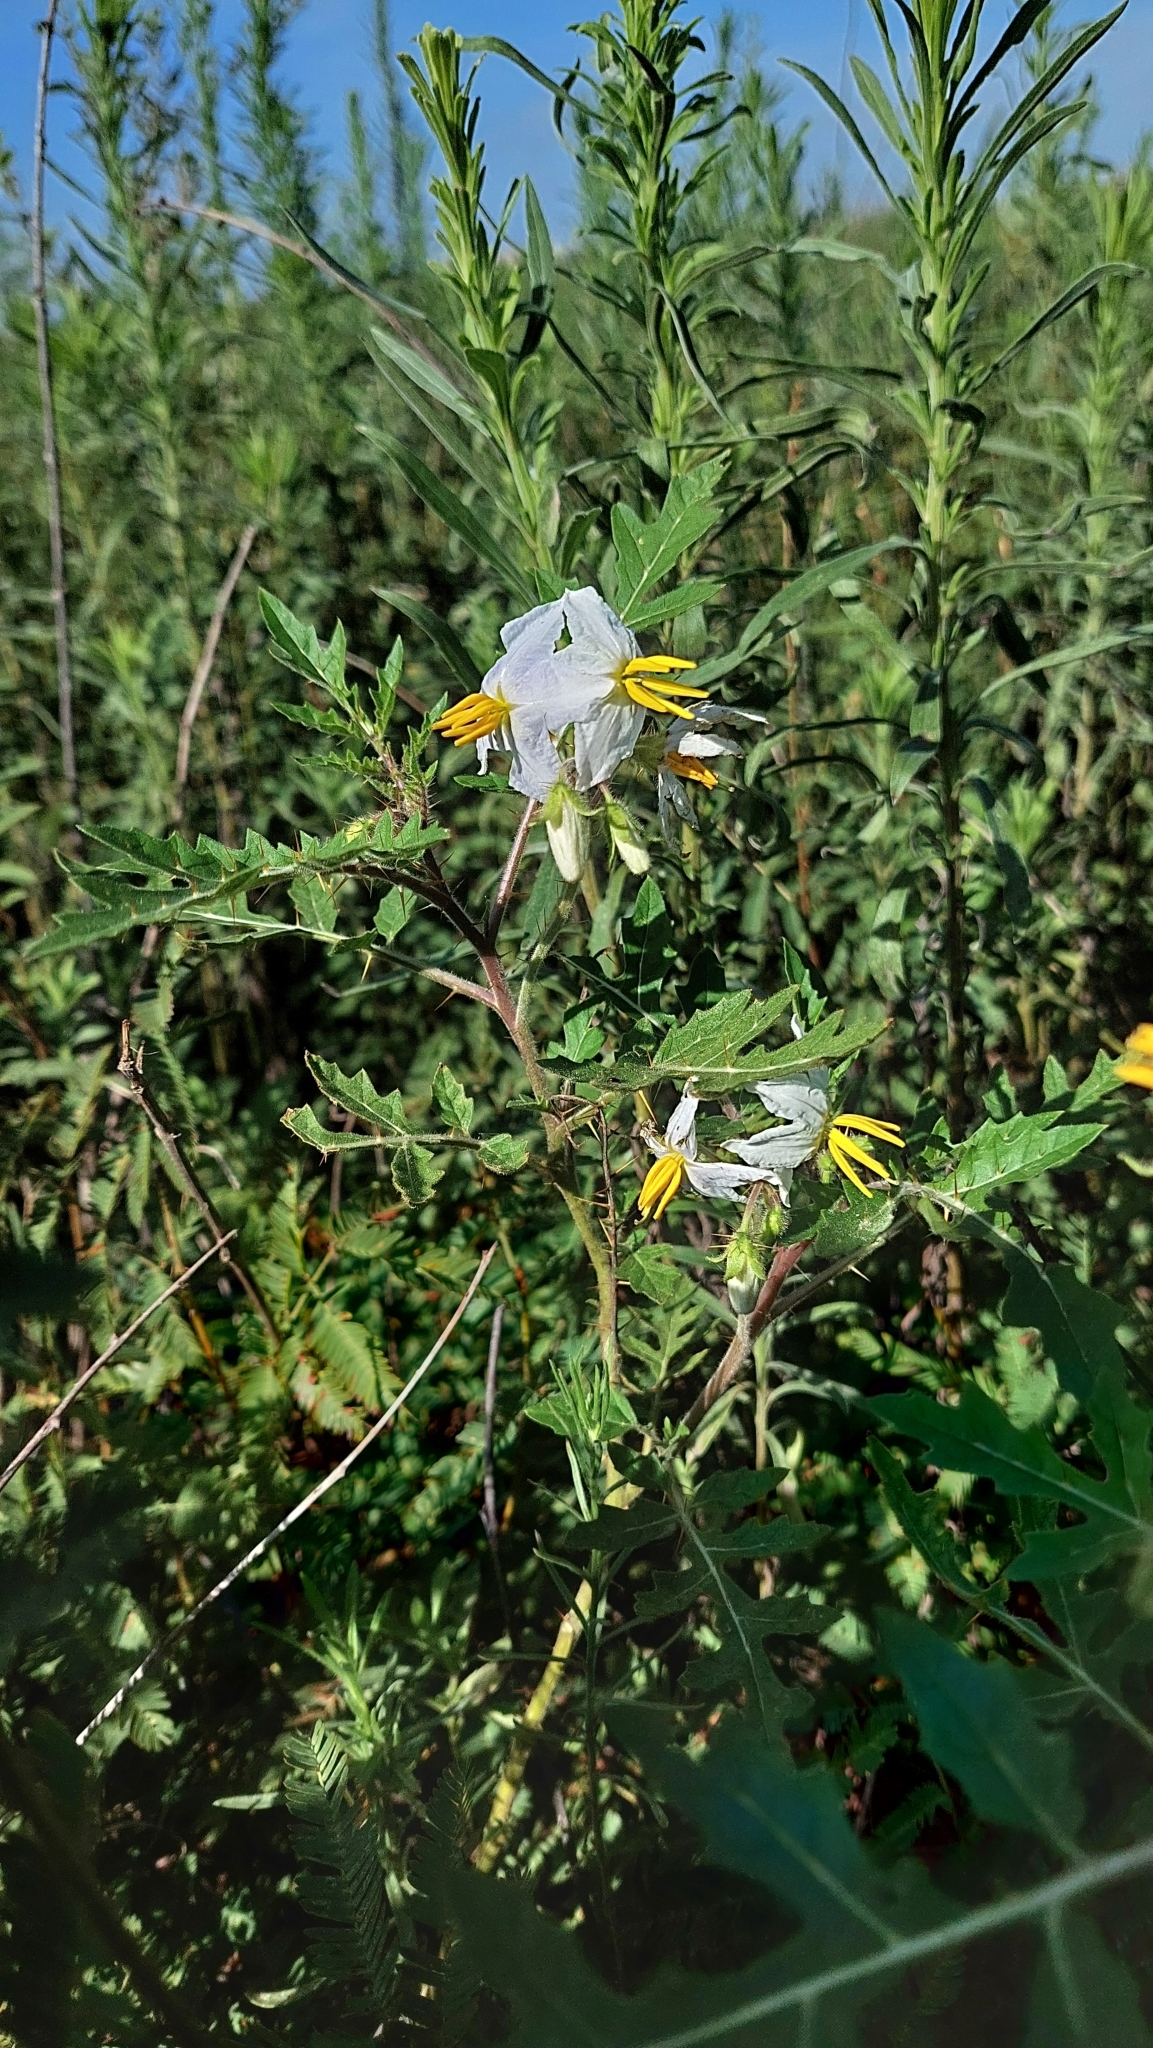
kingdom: Plantae
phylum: Tracheophyta
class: Magnoliopsida
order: Solanales
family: Solanaceae
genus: Solanum
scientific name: Solanum sisymbriifolium
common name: Red buffalo-bur
